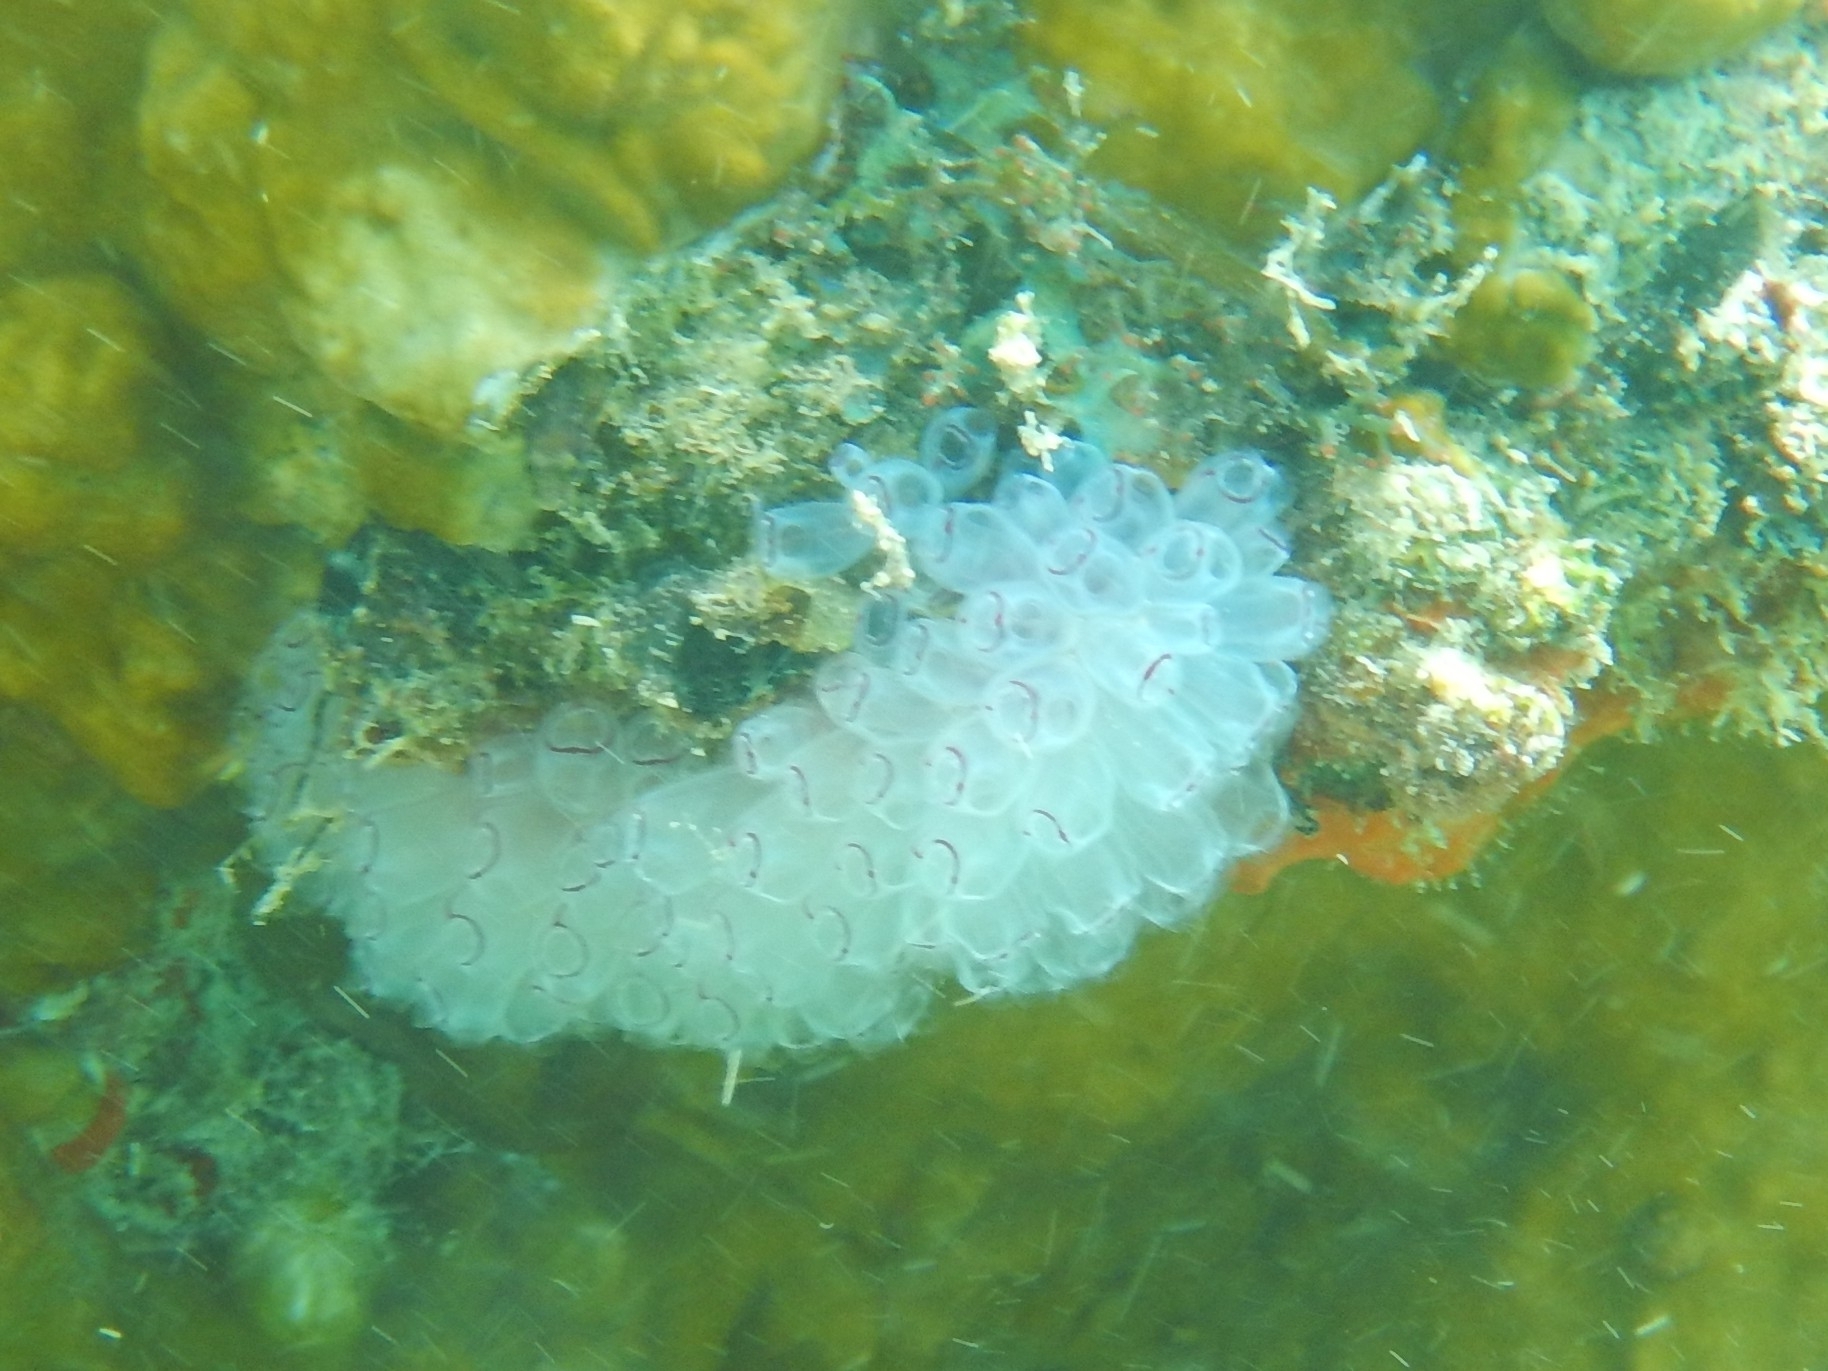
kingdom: Animalia
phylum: Chordata
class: Ascidiacea
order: Aplousobranchia
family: Clavelinidae
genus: Clavelina
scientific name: Clavelina picta
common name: Painted tunicate
